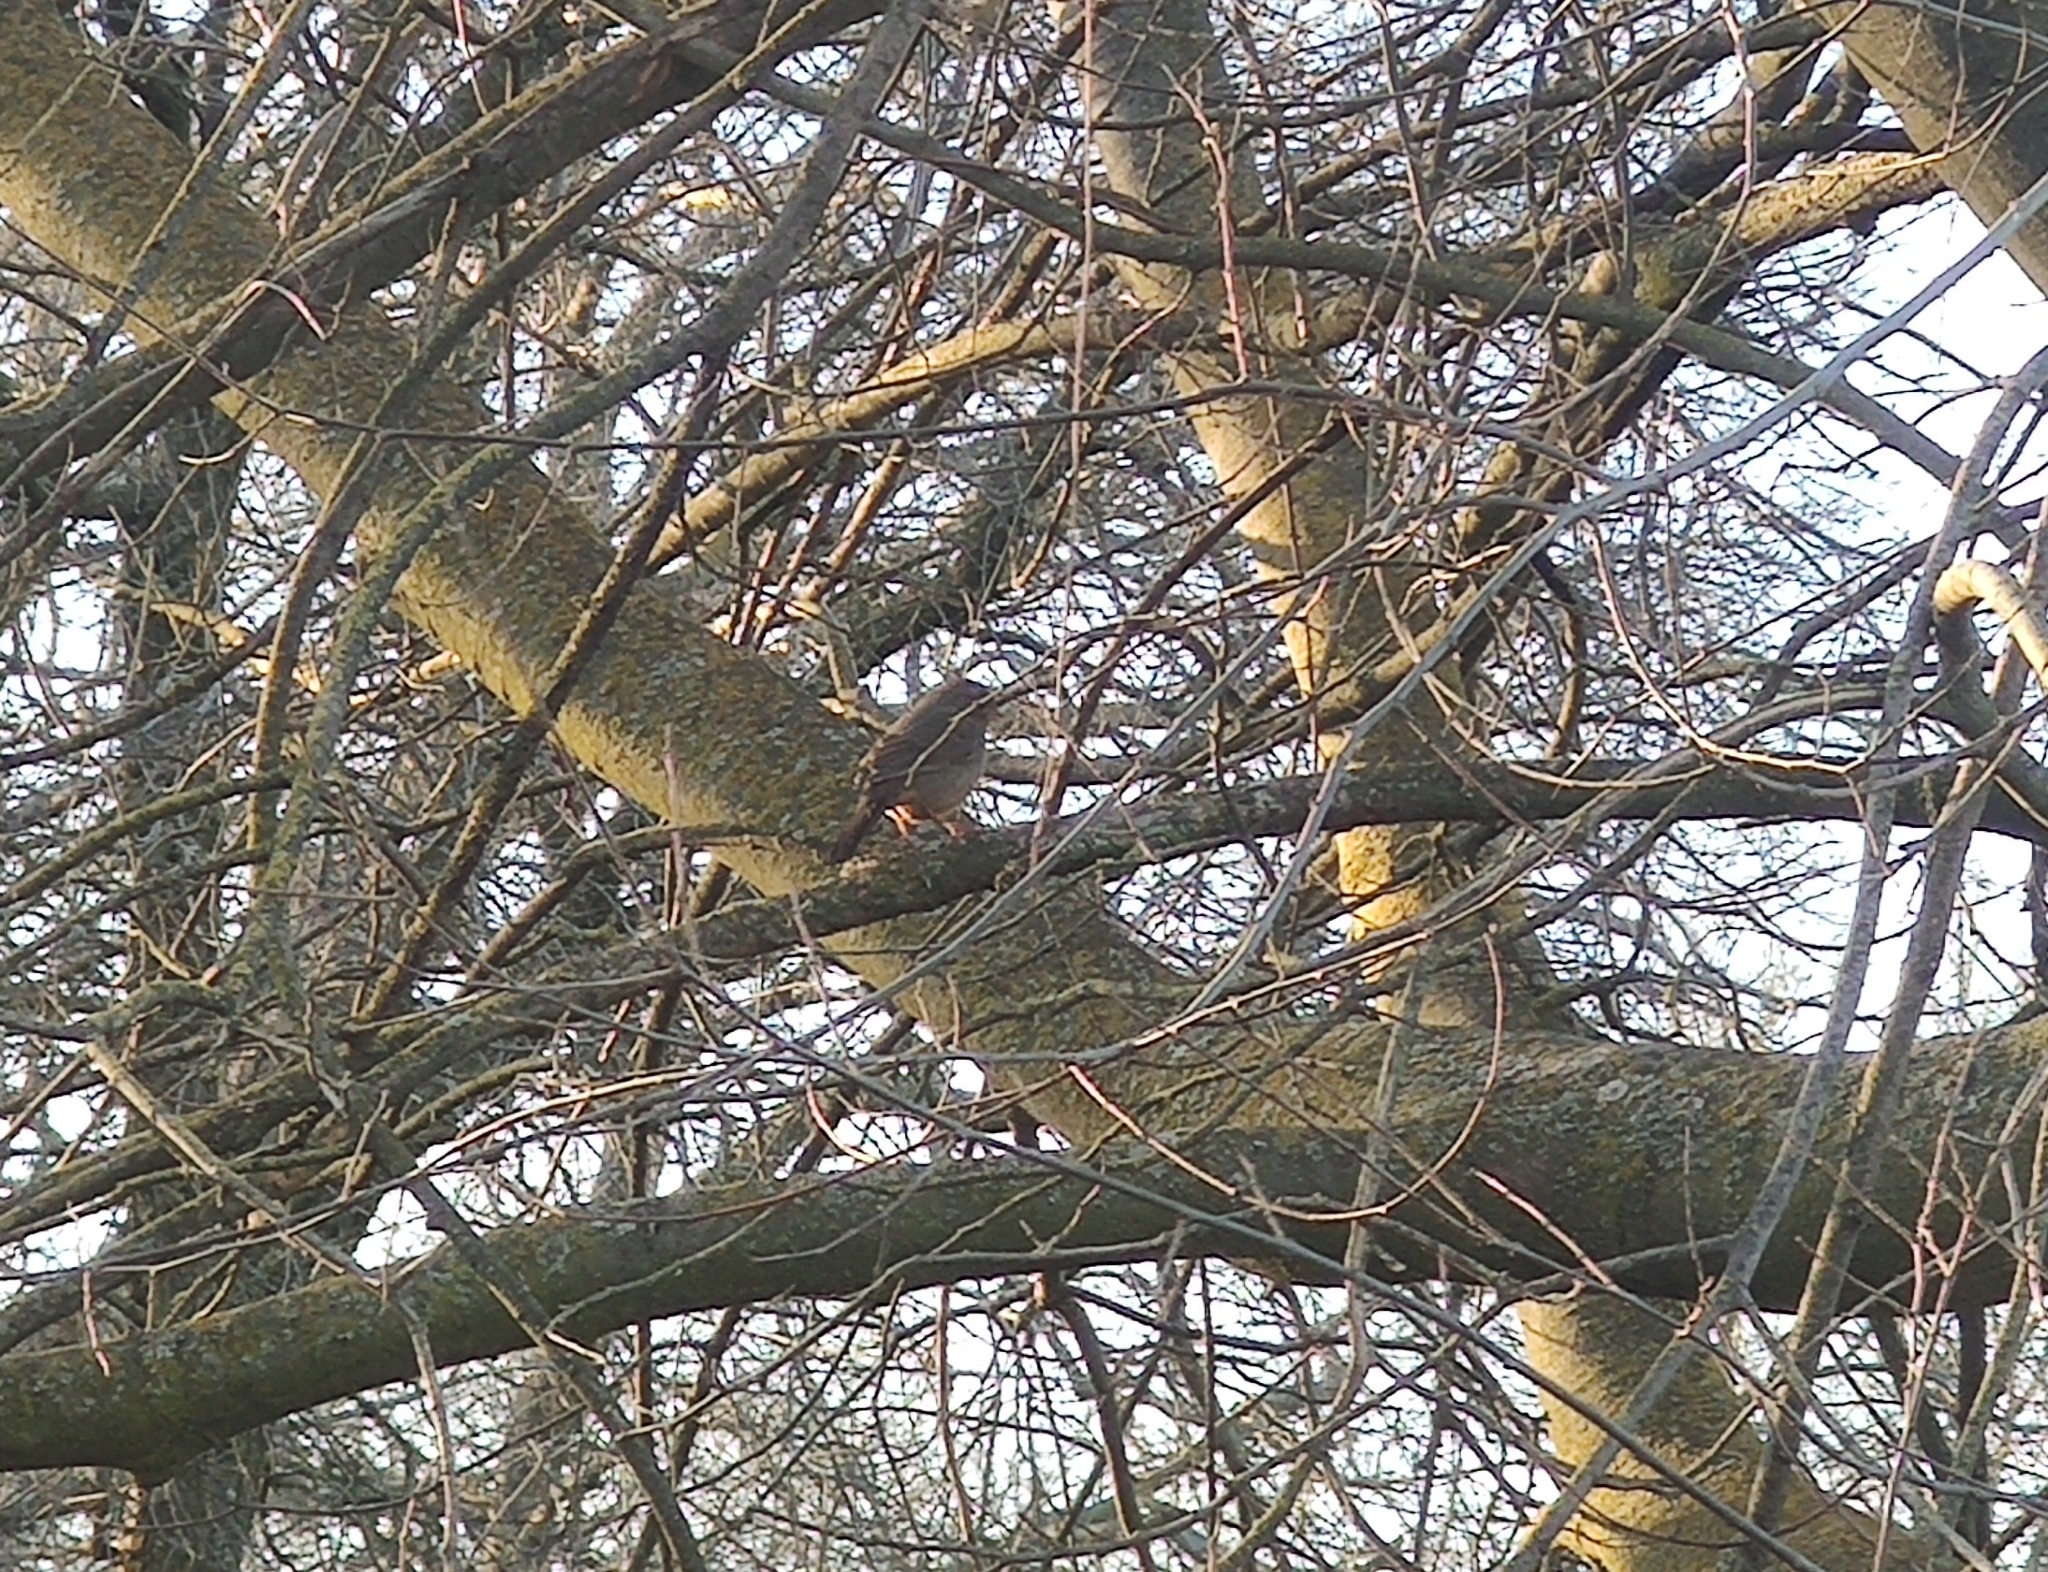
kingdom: Animalia
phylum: Chordata
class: Aves
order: Passeriformes
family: Passerellidae
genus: Melozone
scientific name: Melozone crissalis
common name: California towhee
